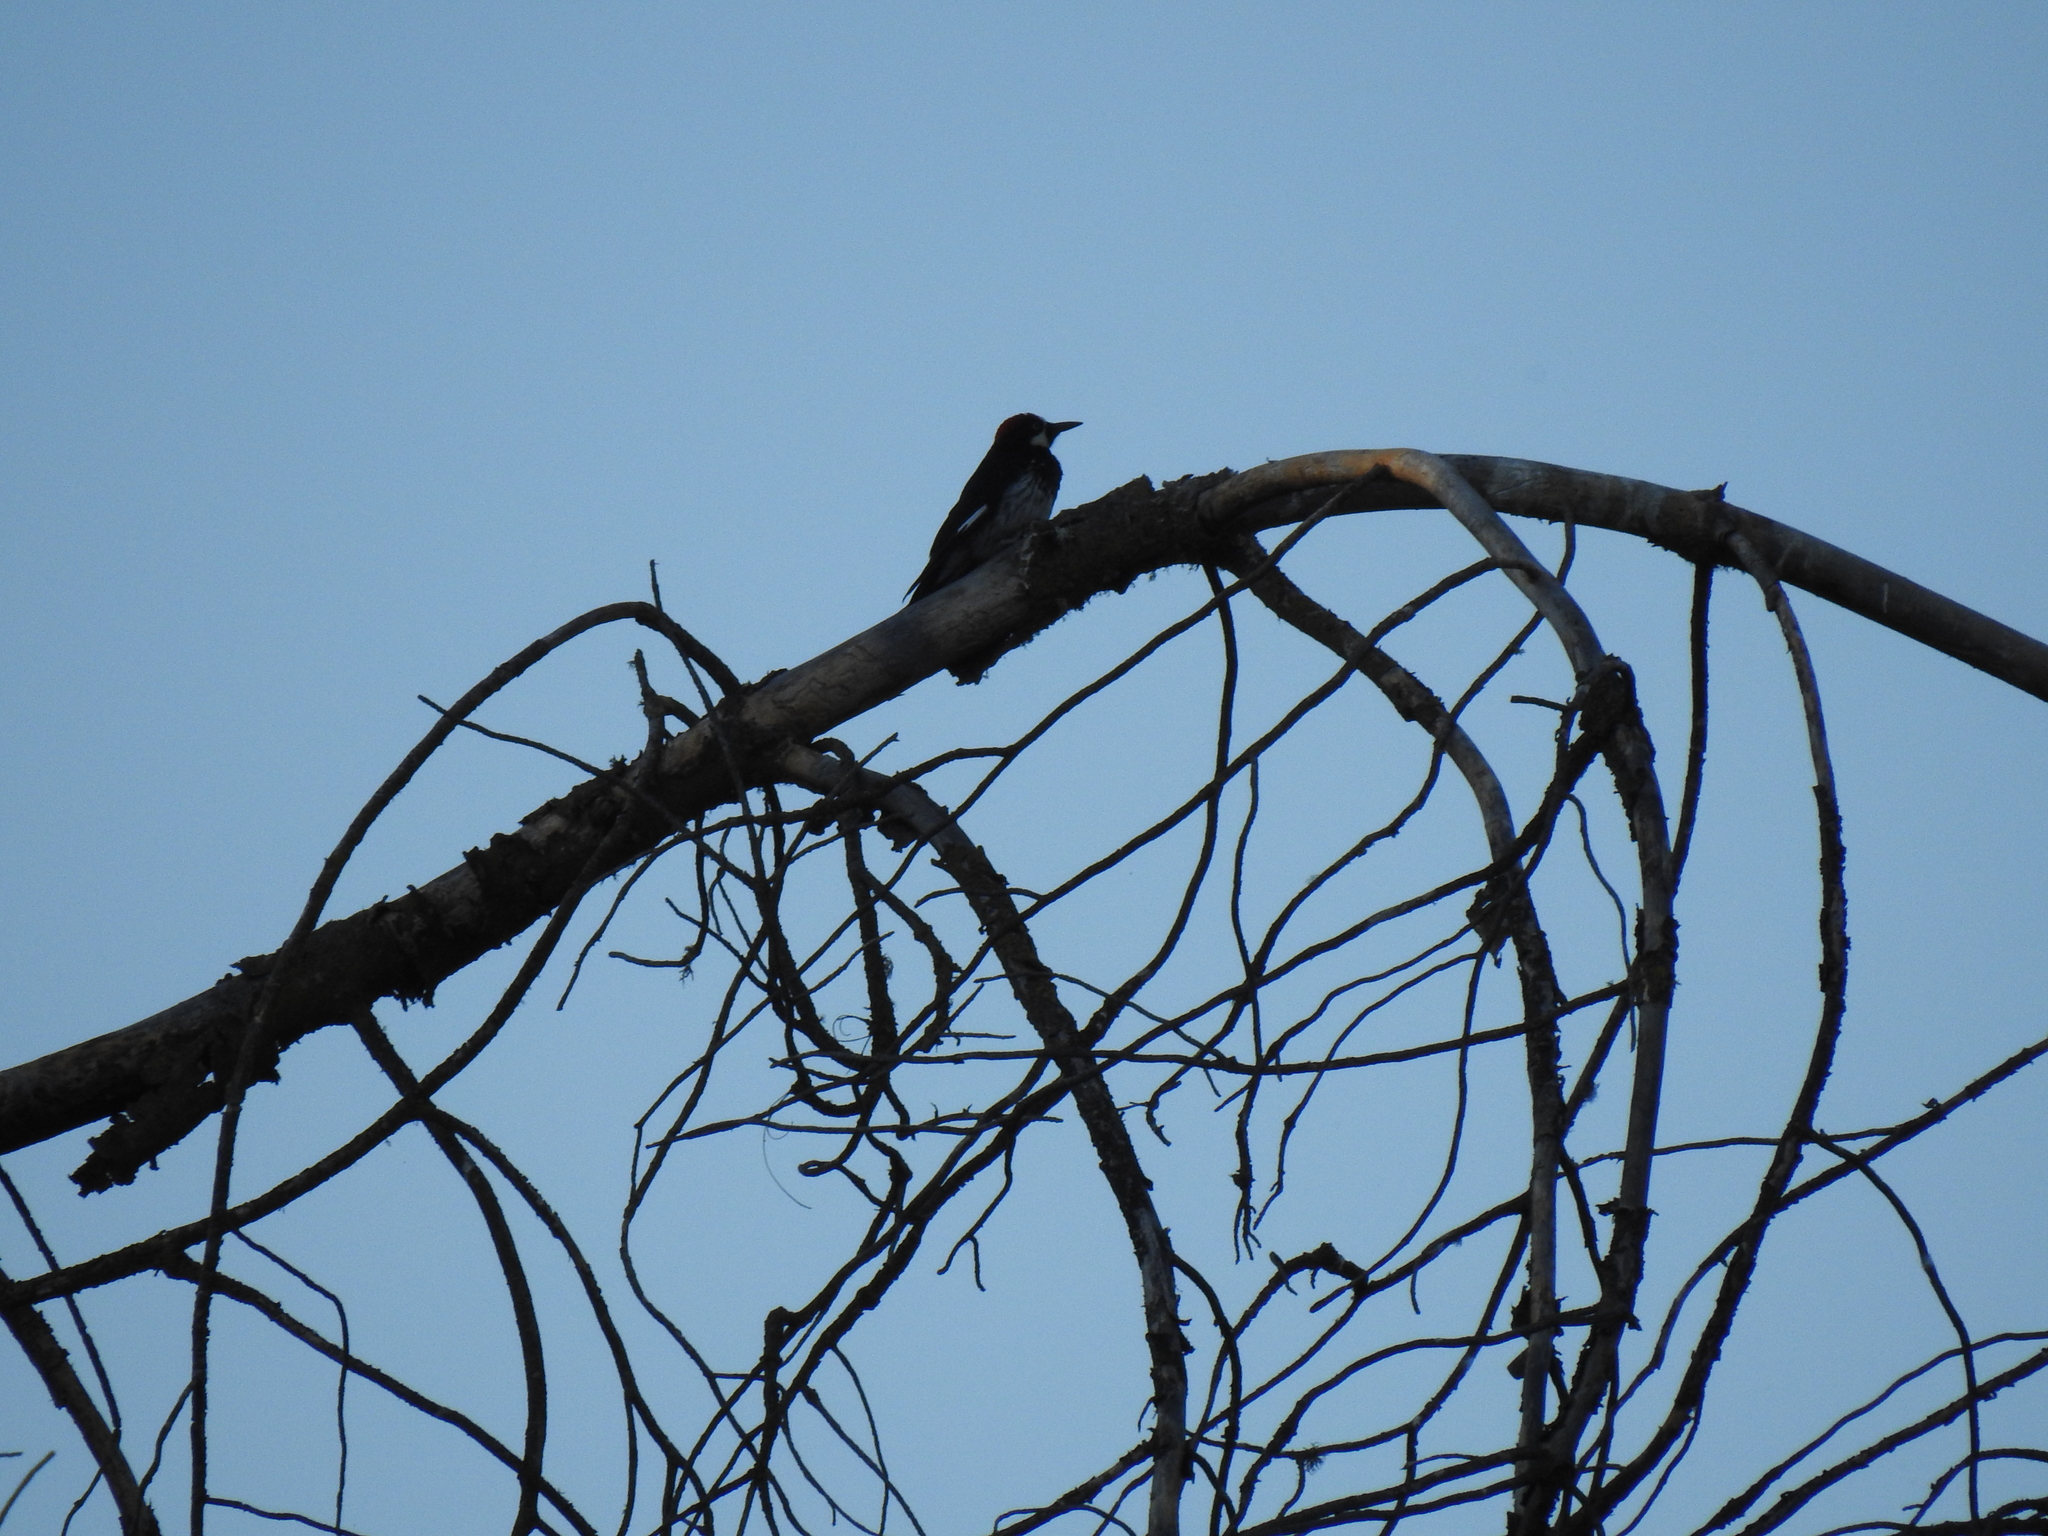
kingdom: Animalia
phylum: Chordata
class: Aves
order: Piciformes
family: Picidae
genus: Melanerpes
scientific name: Melanerpes formicivorus
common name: Acorn woodpecker
